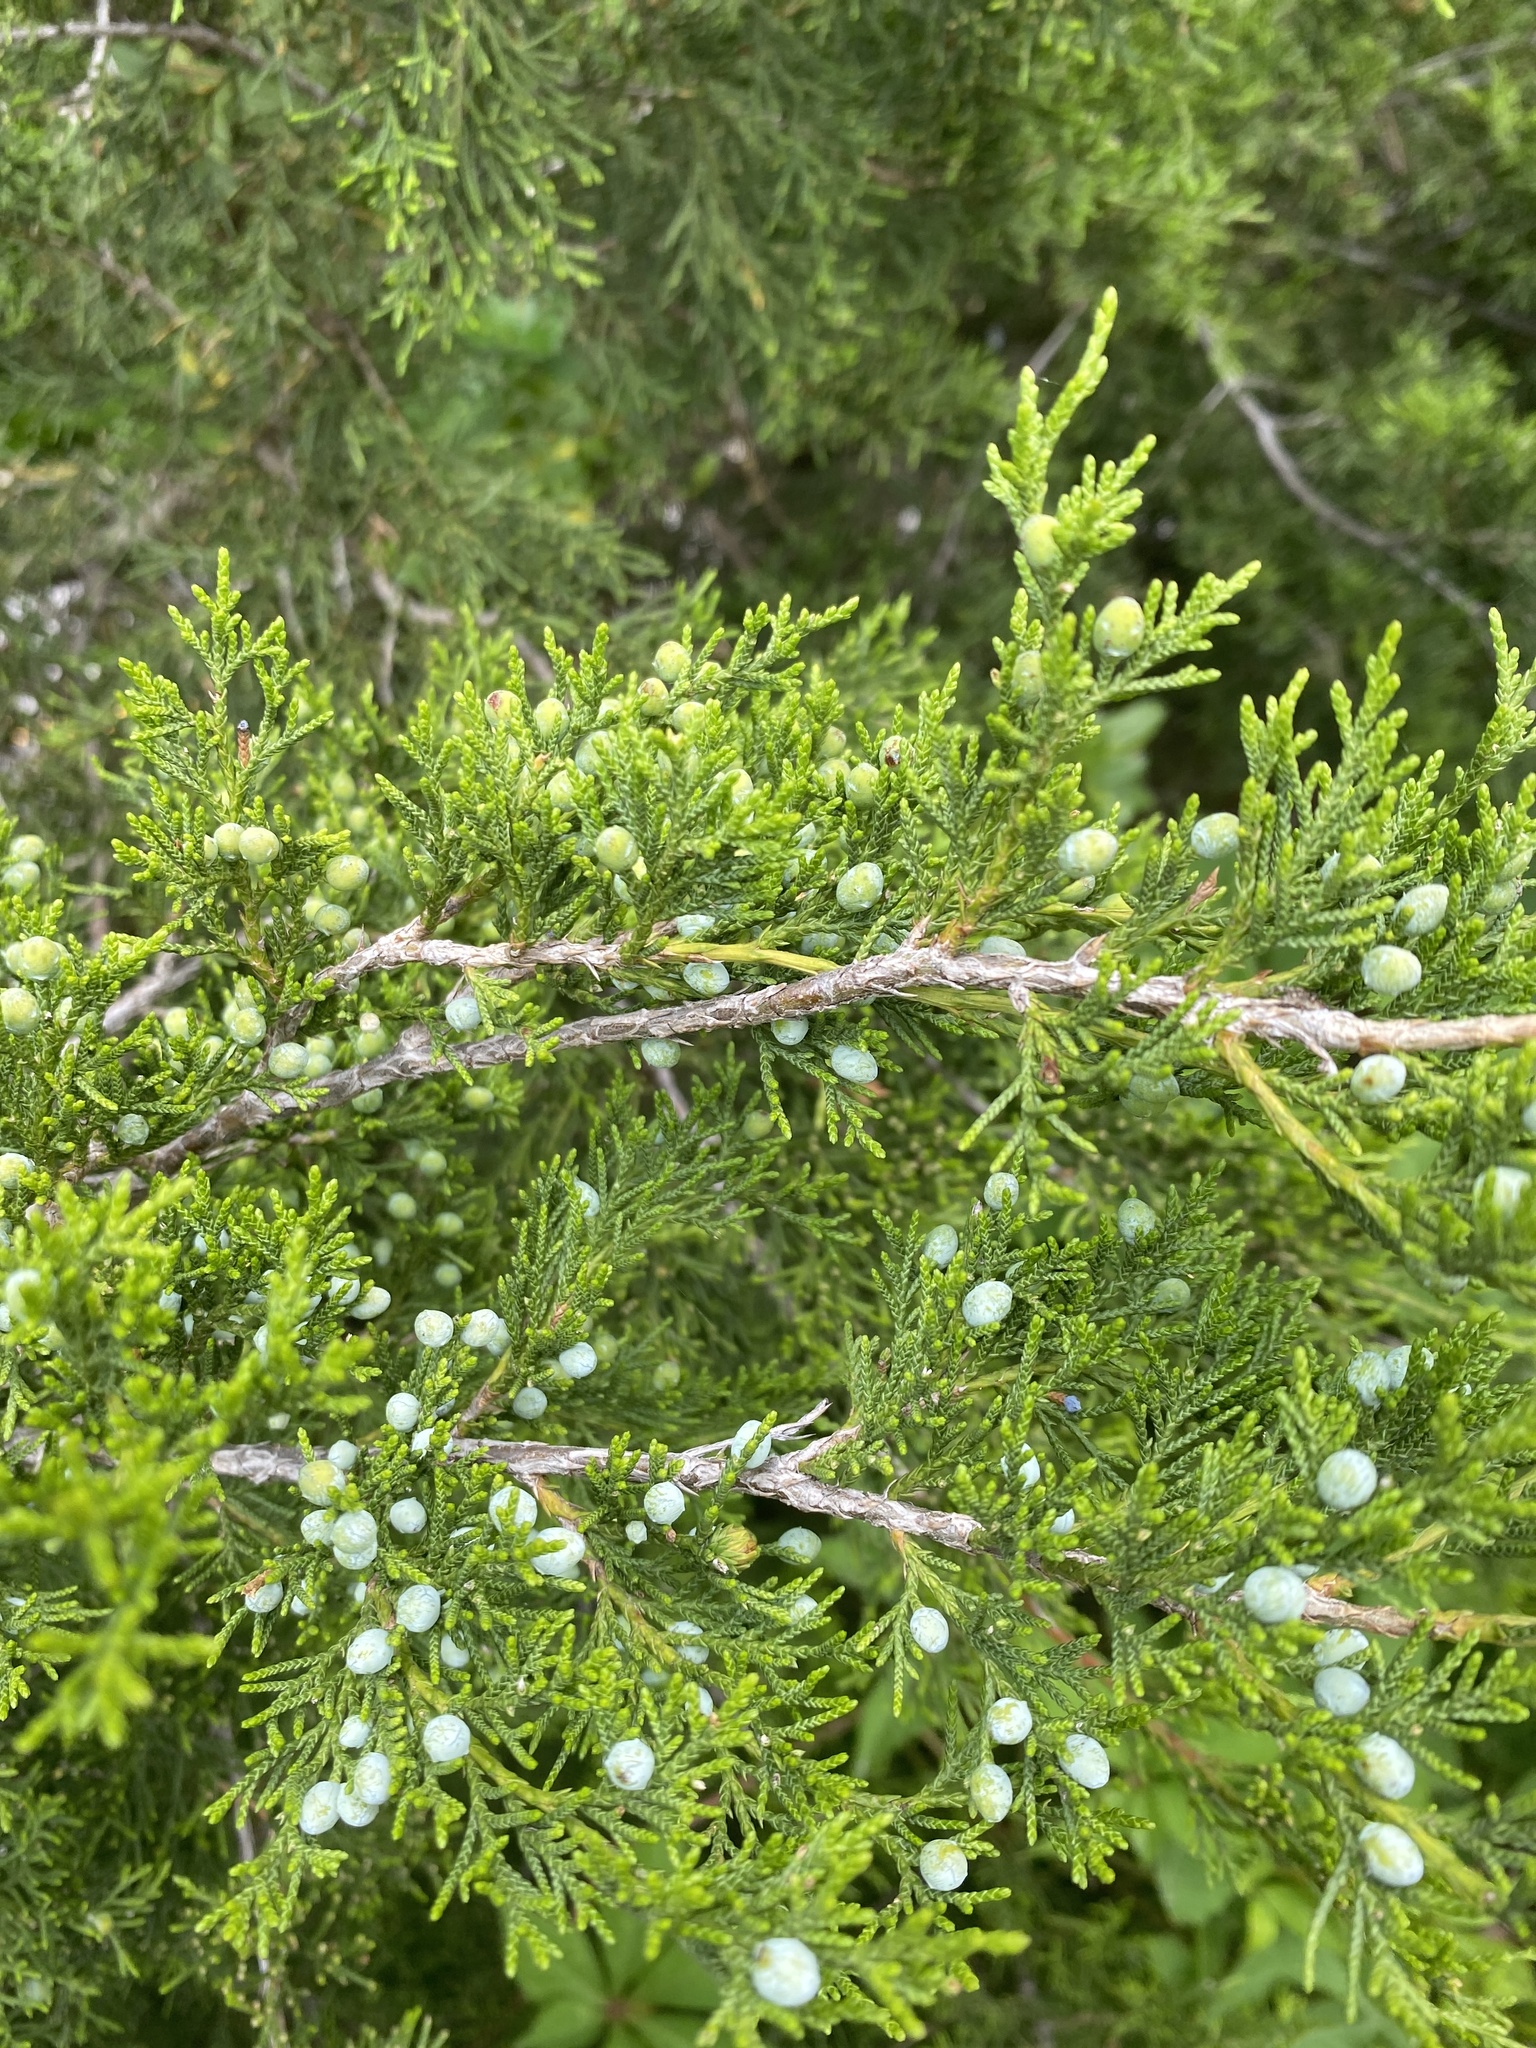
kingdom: Plantae
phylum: Tracheophyta
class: Pinopsida
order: Pinales
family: Cupressaceae
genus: Juniperus
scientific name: Juniperus virginiana
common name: Red juniper
